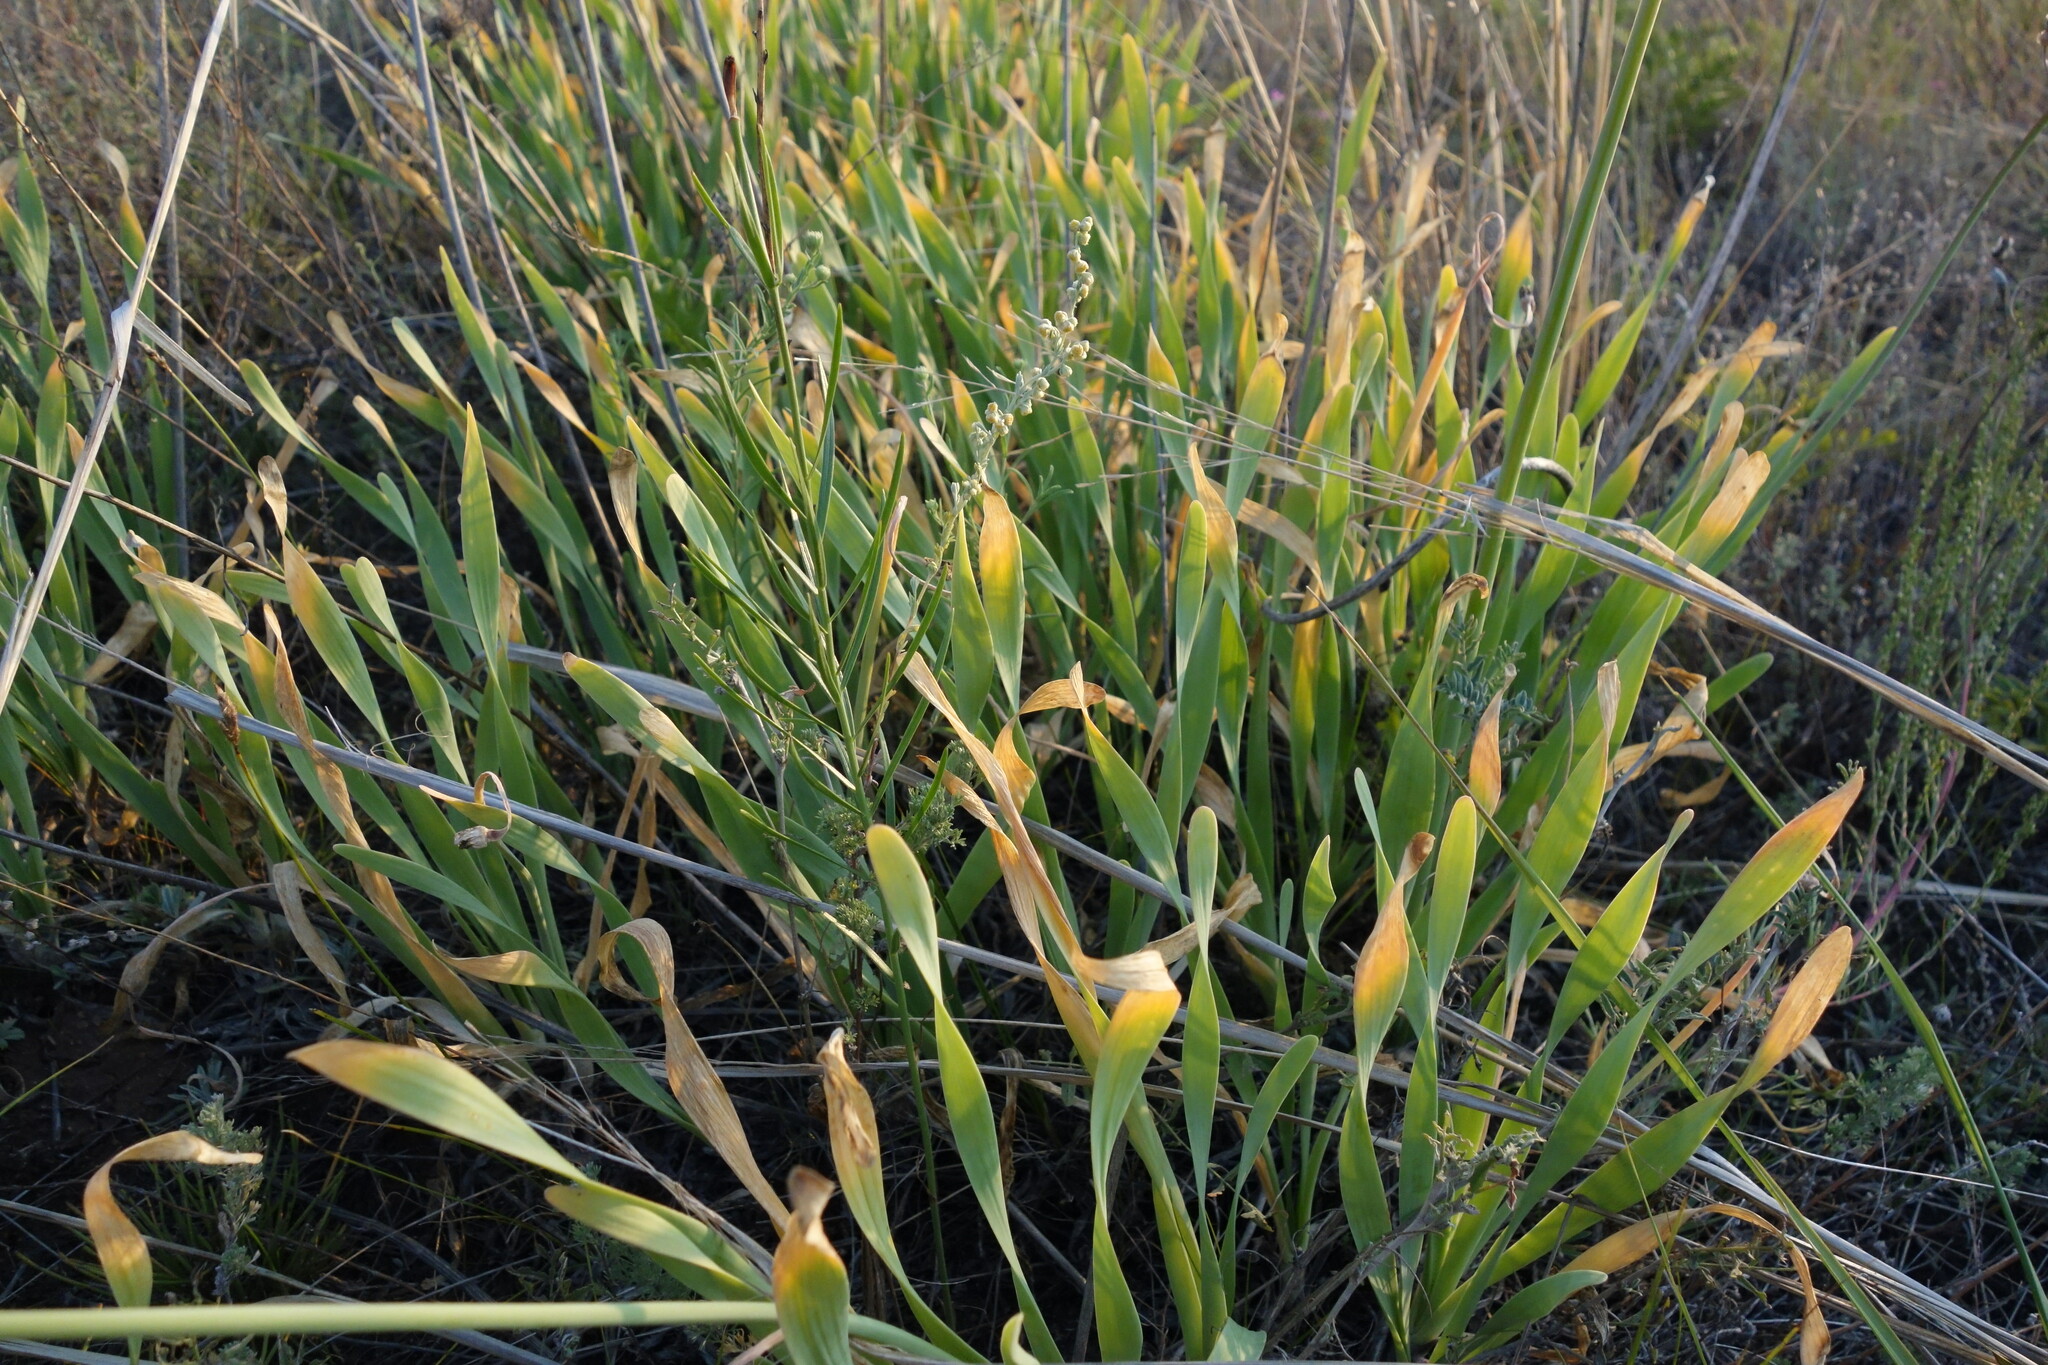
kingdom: Plantae
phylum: Tracheophyta
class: Liliopsida
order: Asparagales
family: Amaryllidaceae
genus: Allium
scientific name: Allium senescens
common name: German garlic
